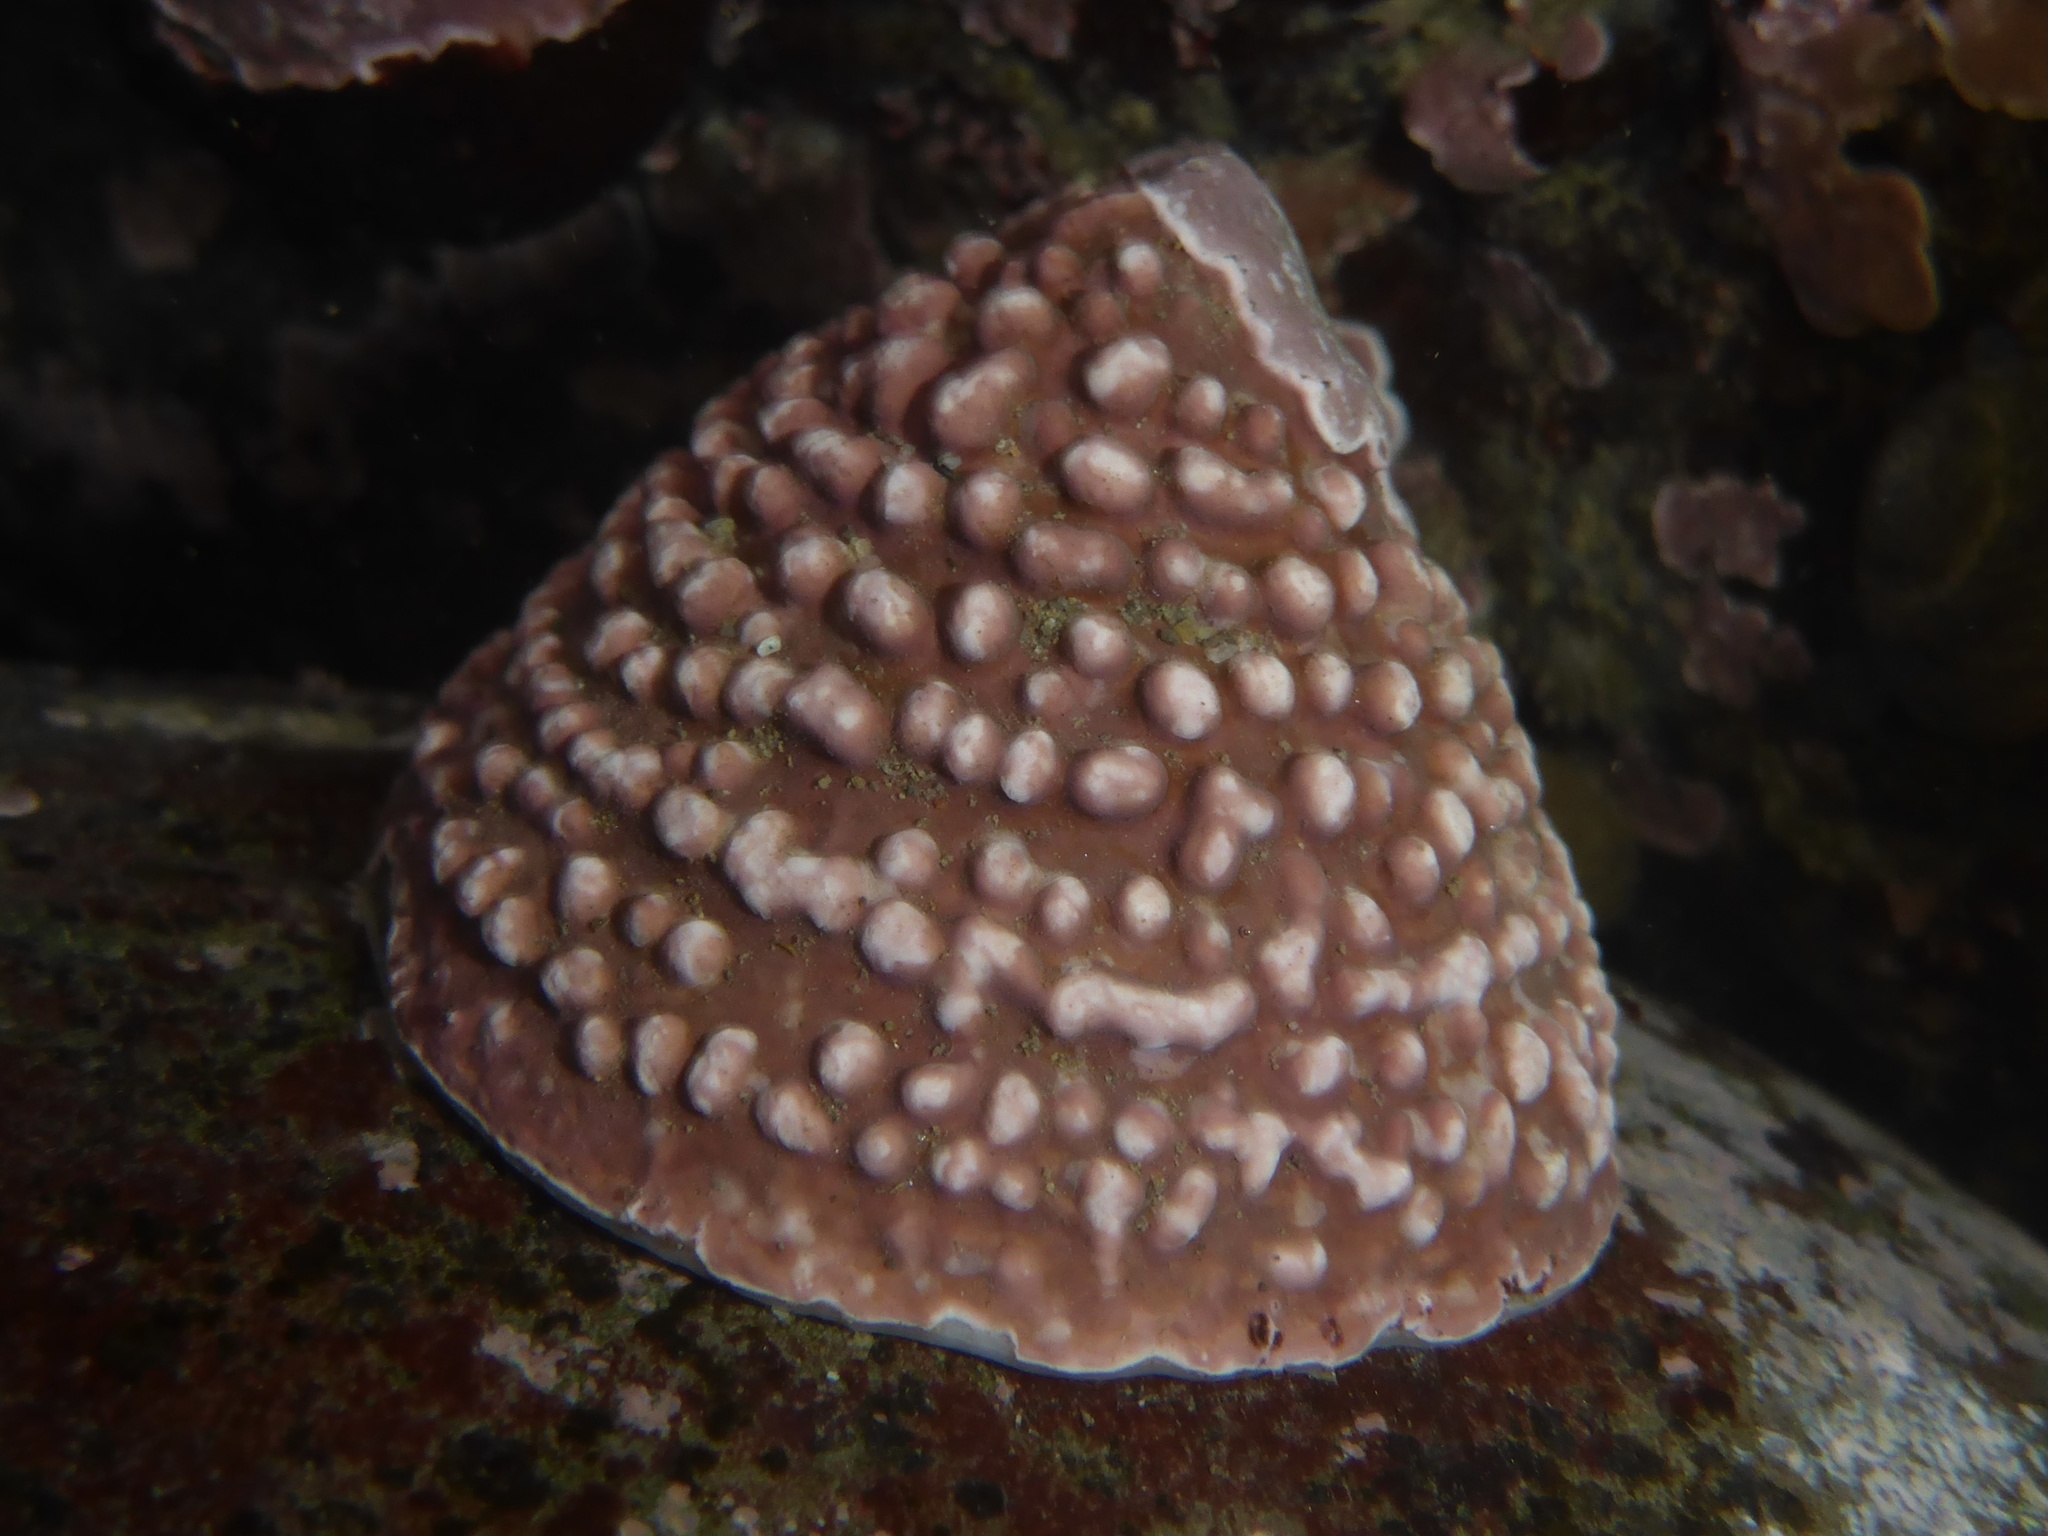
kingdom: Animalia
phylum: Mollusca
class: Gastropoda
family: Acmaeidae
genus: Acmaea
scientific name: Acmaea mitra
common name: Pacific white cap limpet
